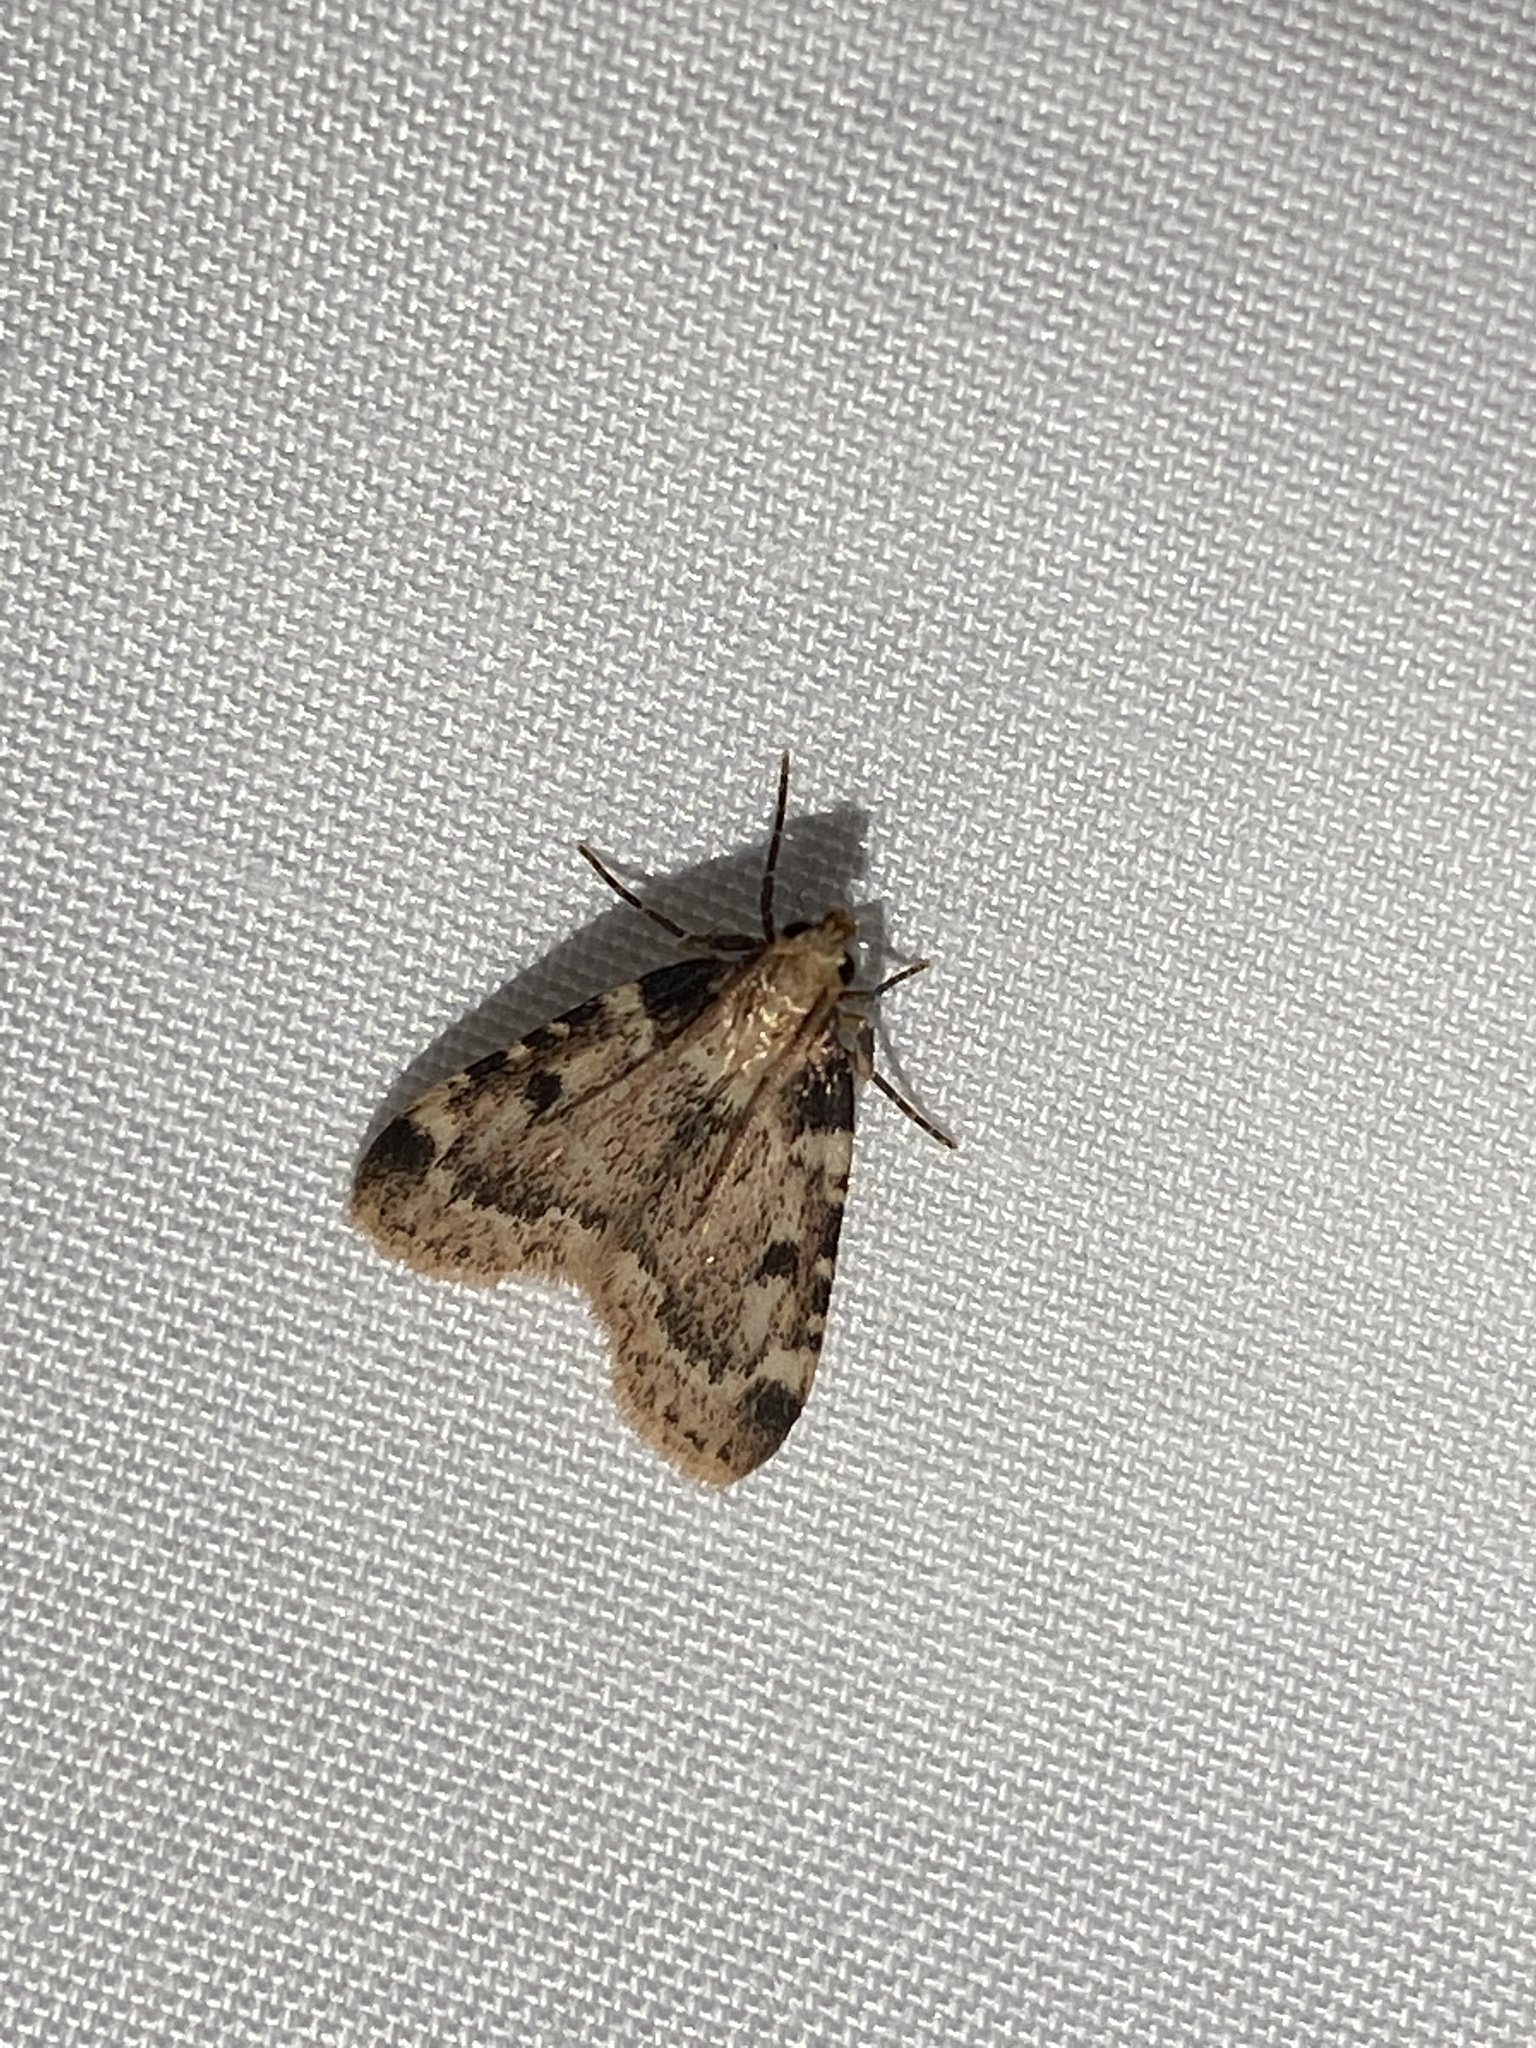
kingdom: Animalia
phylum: Arthropoda
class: Insecta
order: Lepidoptera
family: Pyralidae
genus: Aglossa
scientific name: Aglossa costiferalis
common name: Calico pyralid moth
